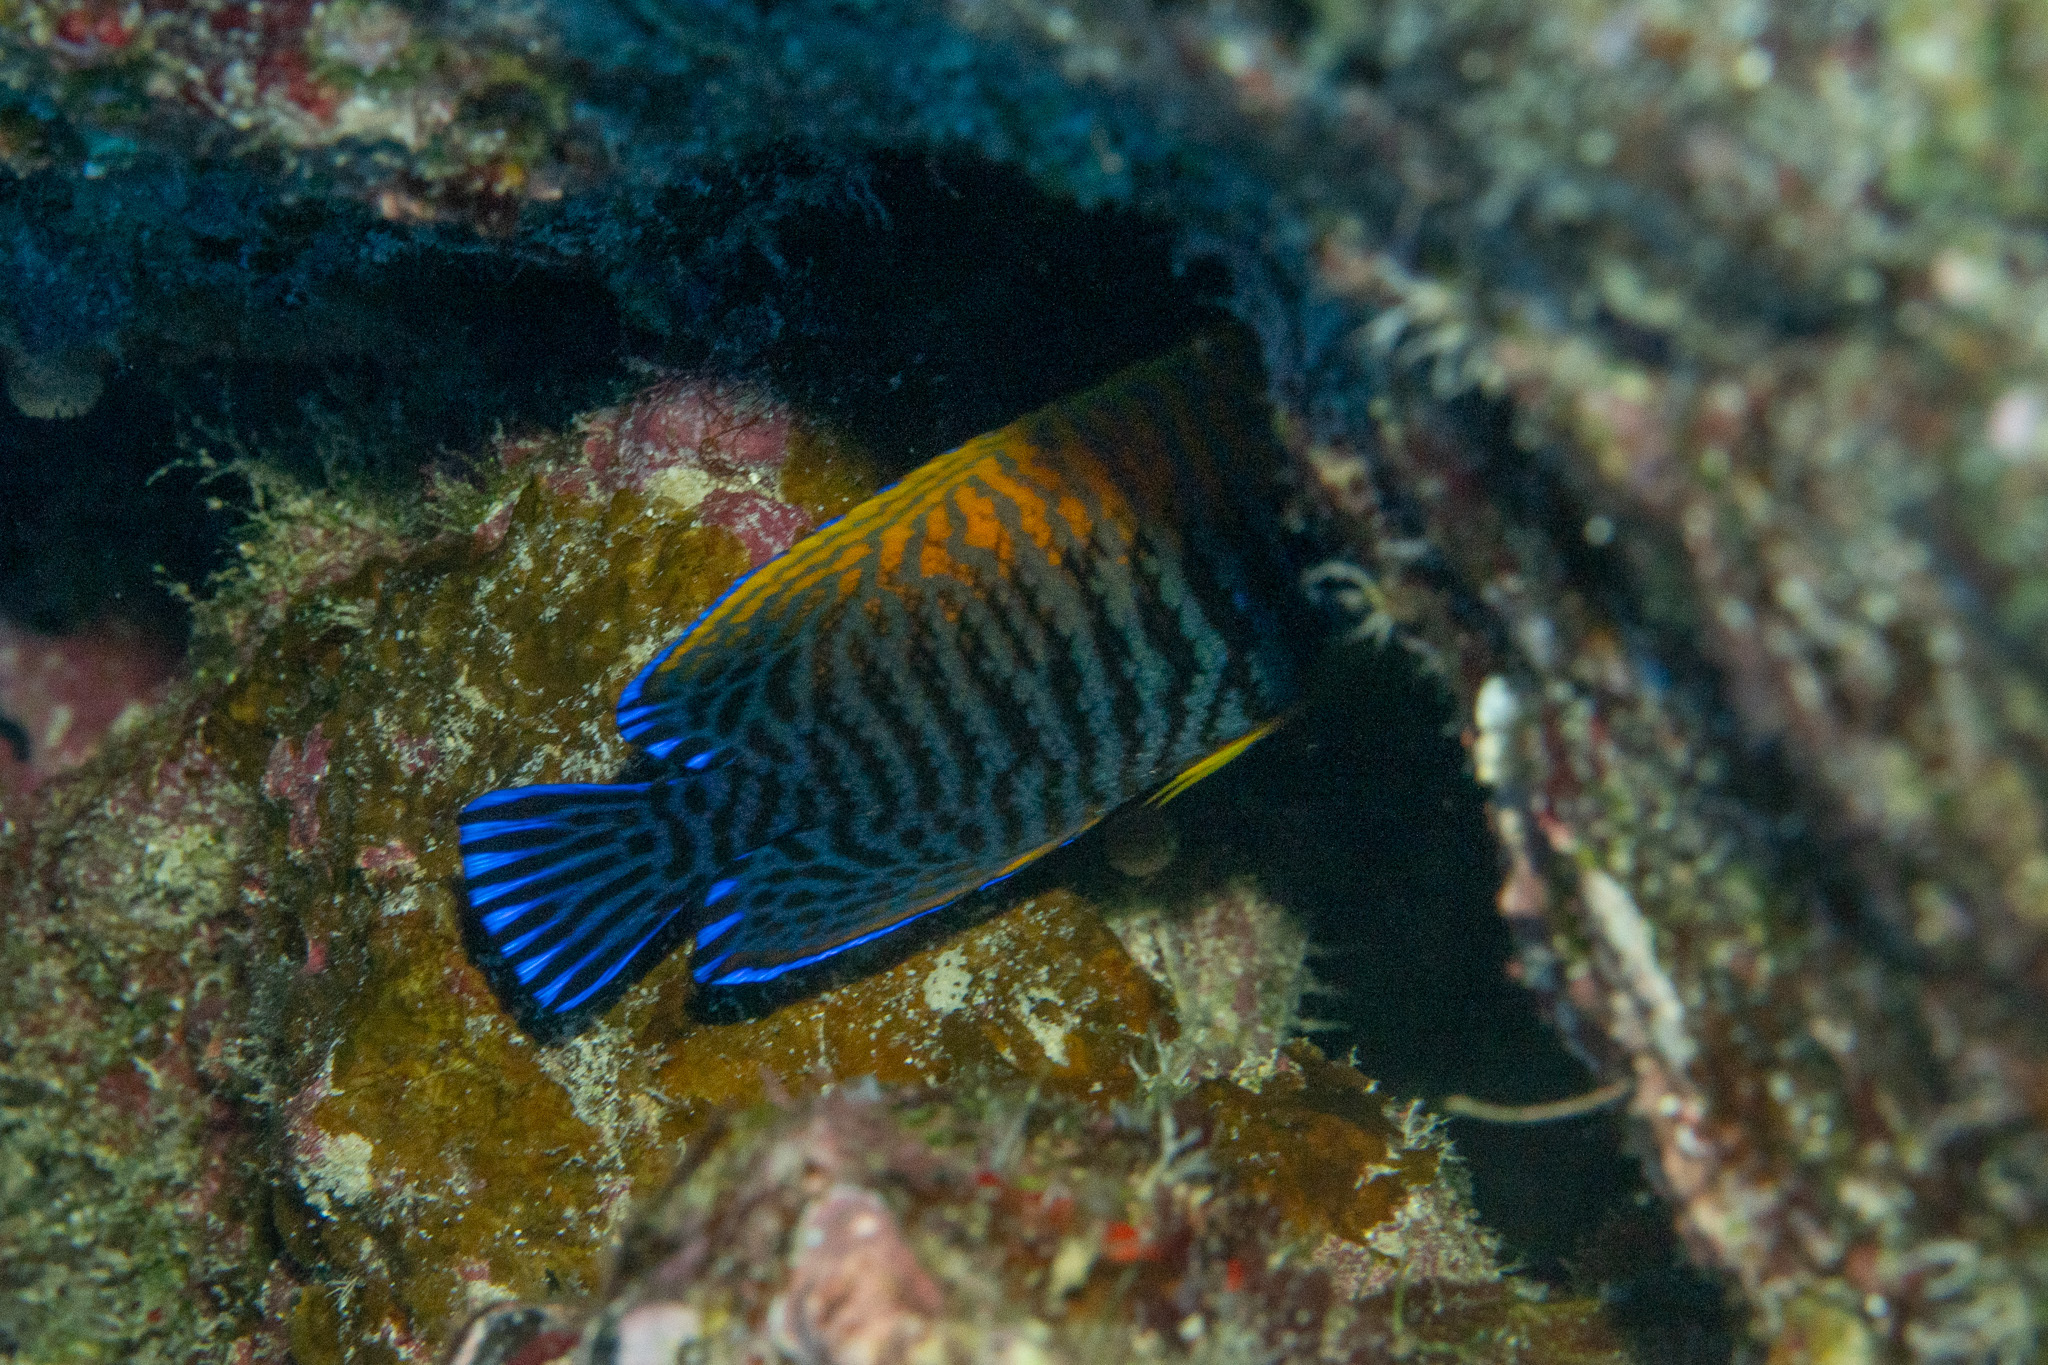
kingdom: Animalia
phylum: Chordata
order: Perciformes
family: Pomacanthidae
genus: Centropyge
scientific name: Centropyge potteri
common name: Potter's angelfish
